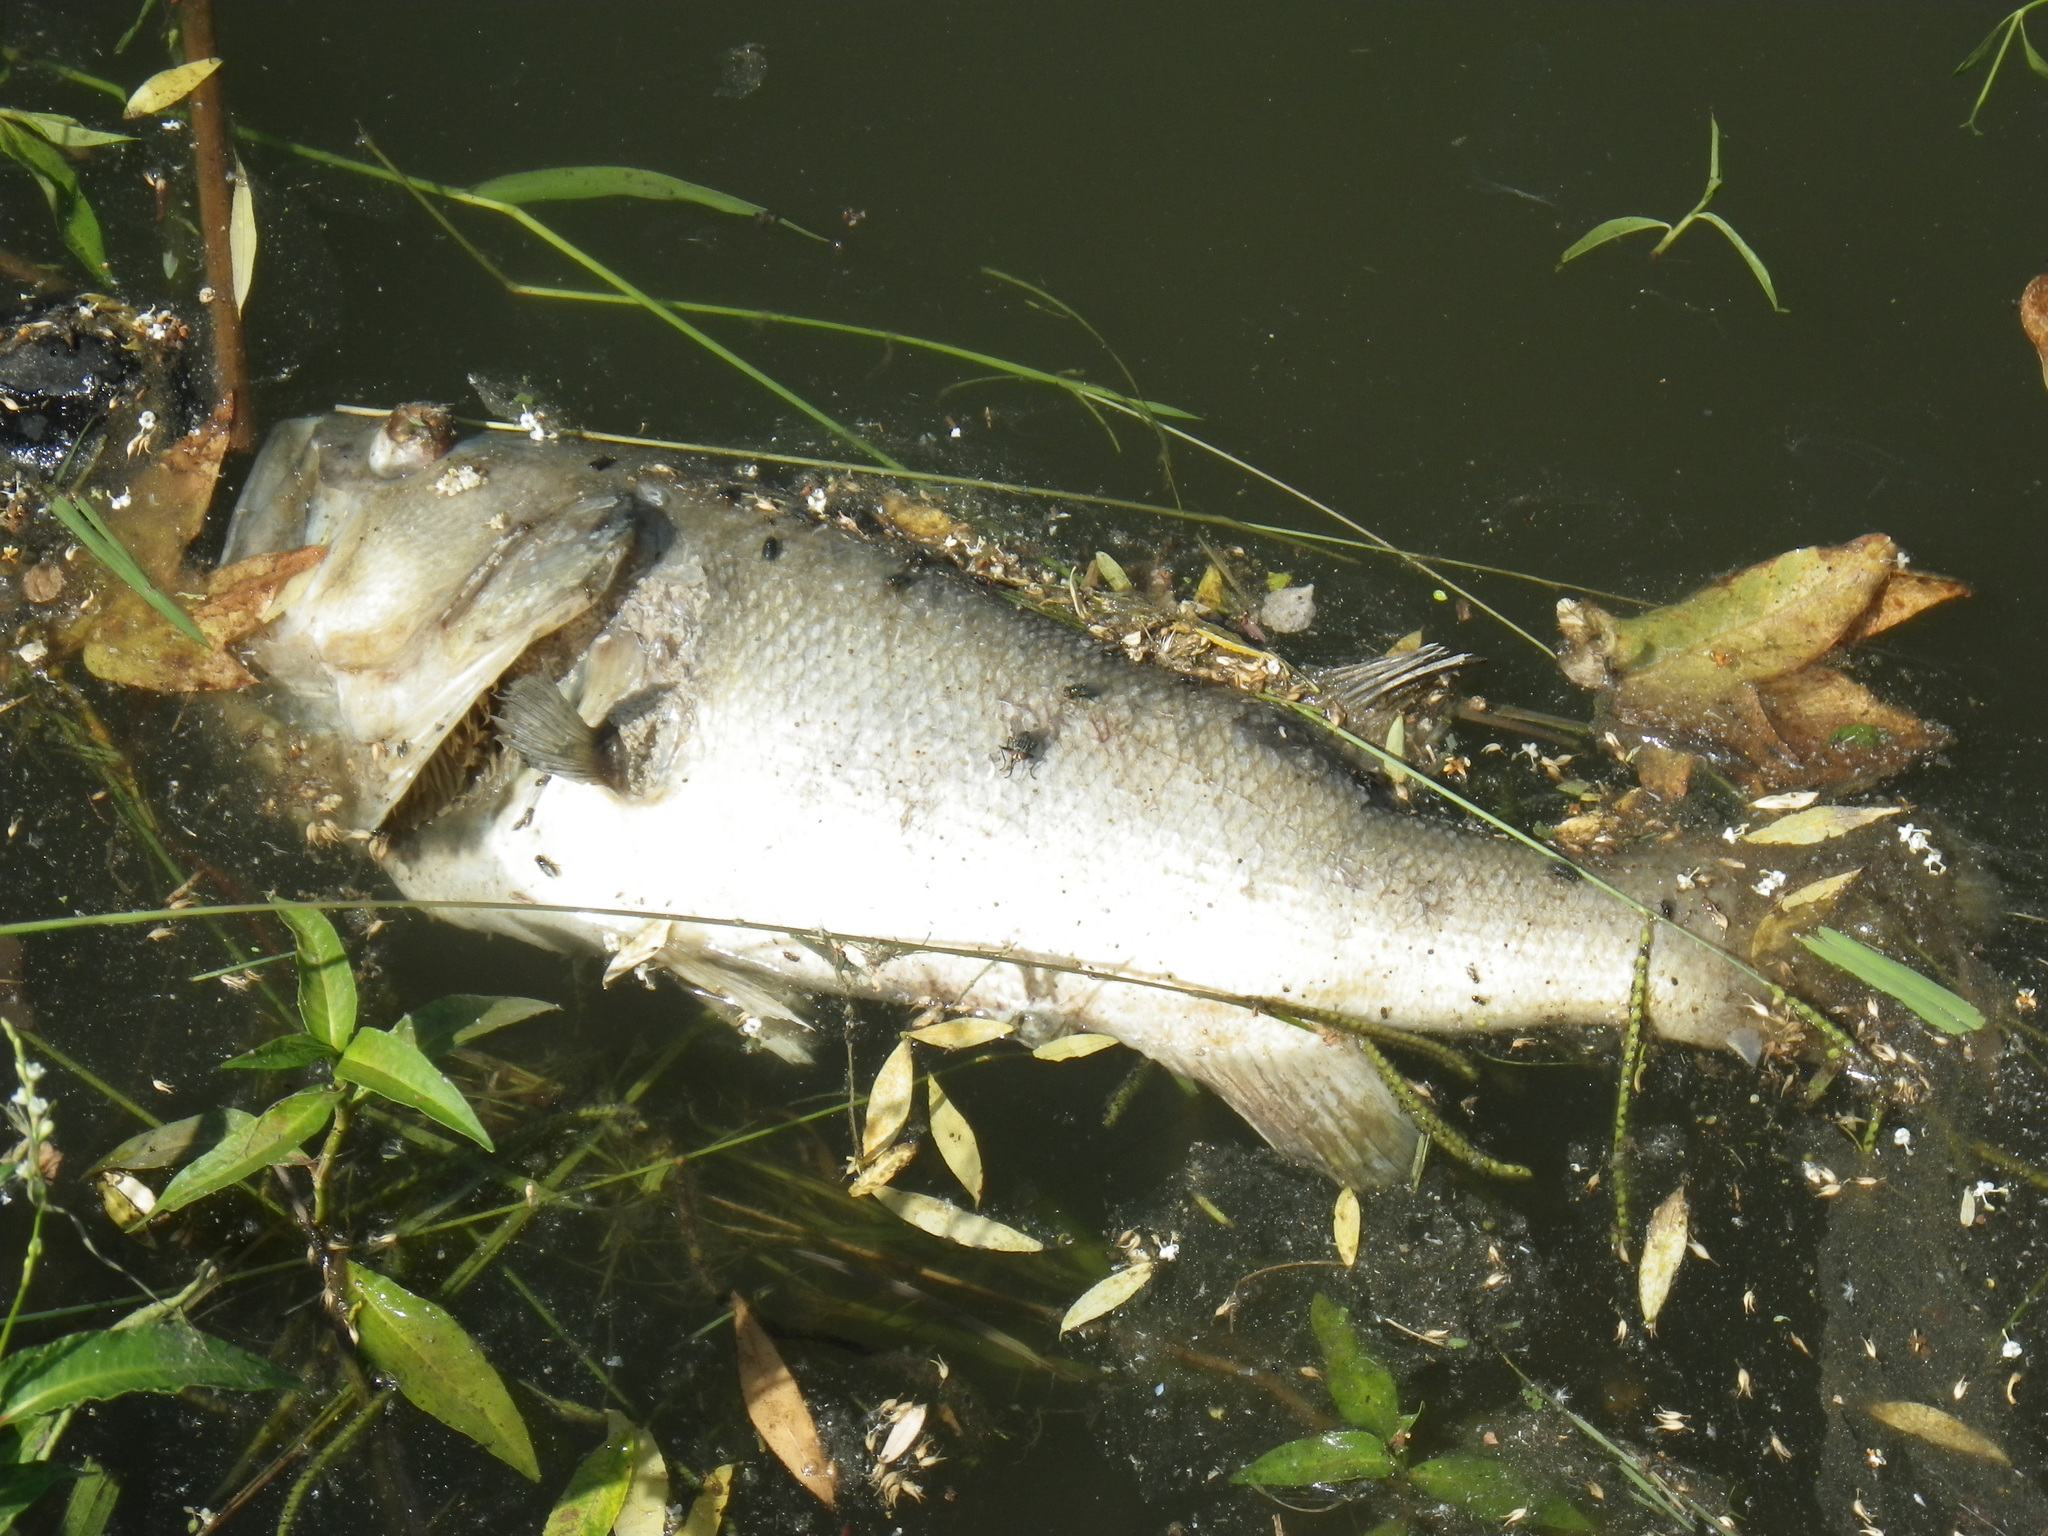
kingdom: Animalia
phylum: Chordata
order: Perciformes
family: Centrarchidae
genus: Micropterus
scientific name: Micropterus
